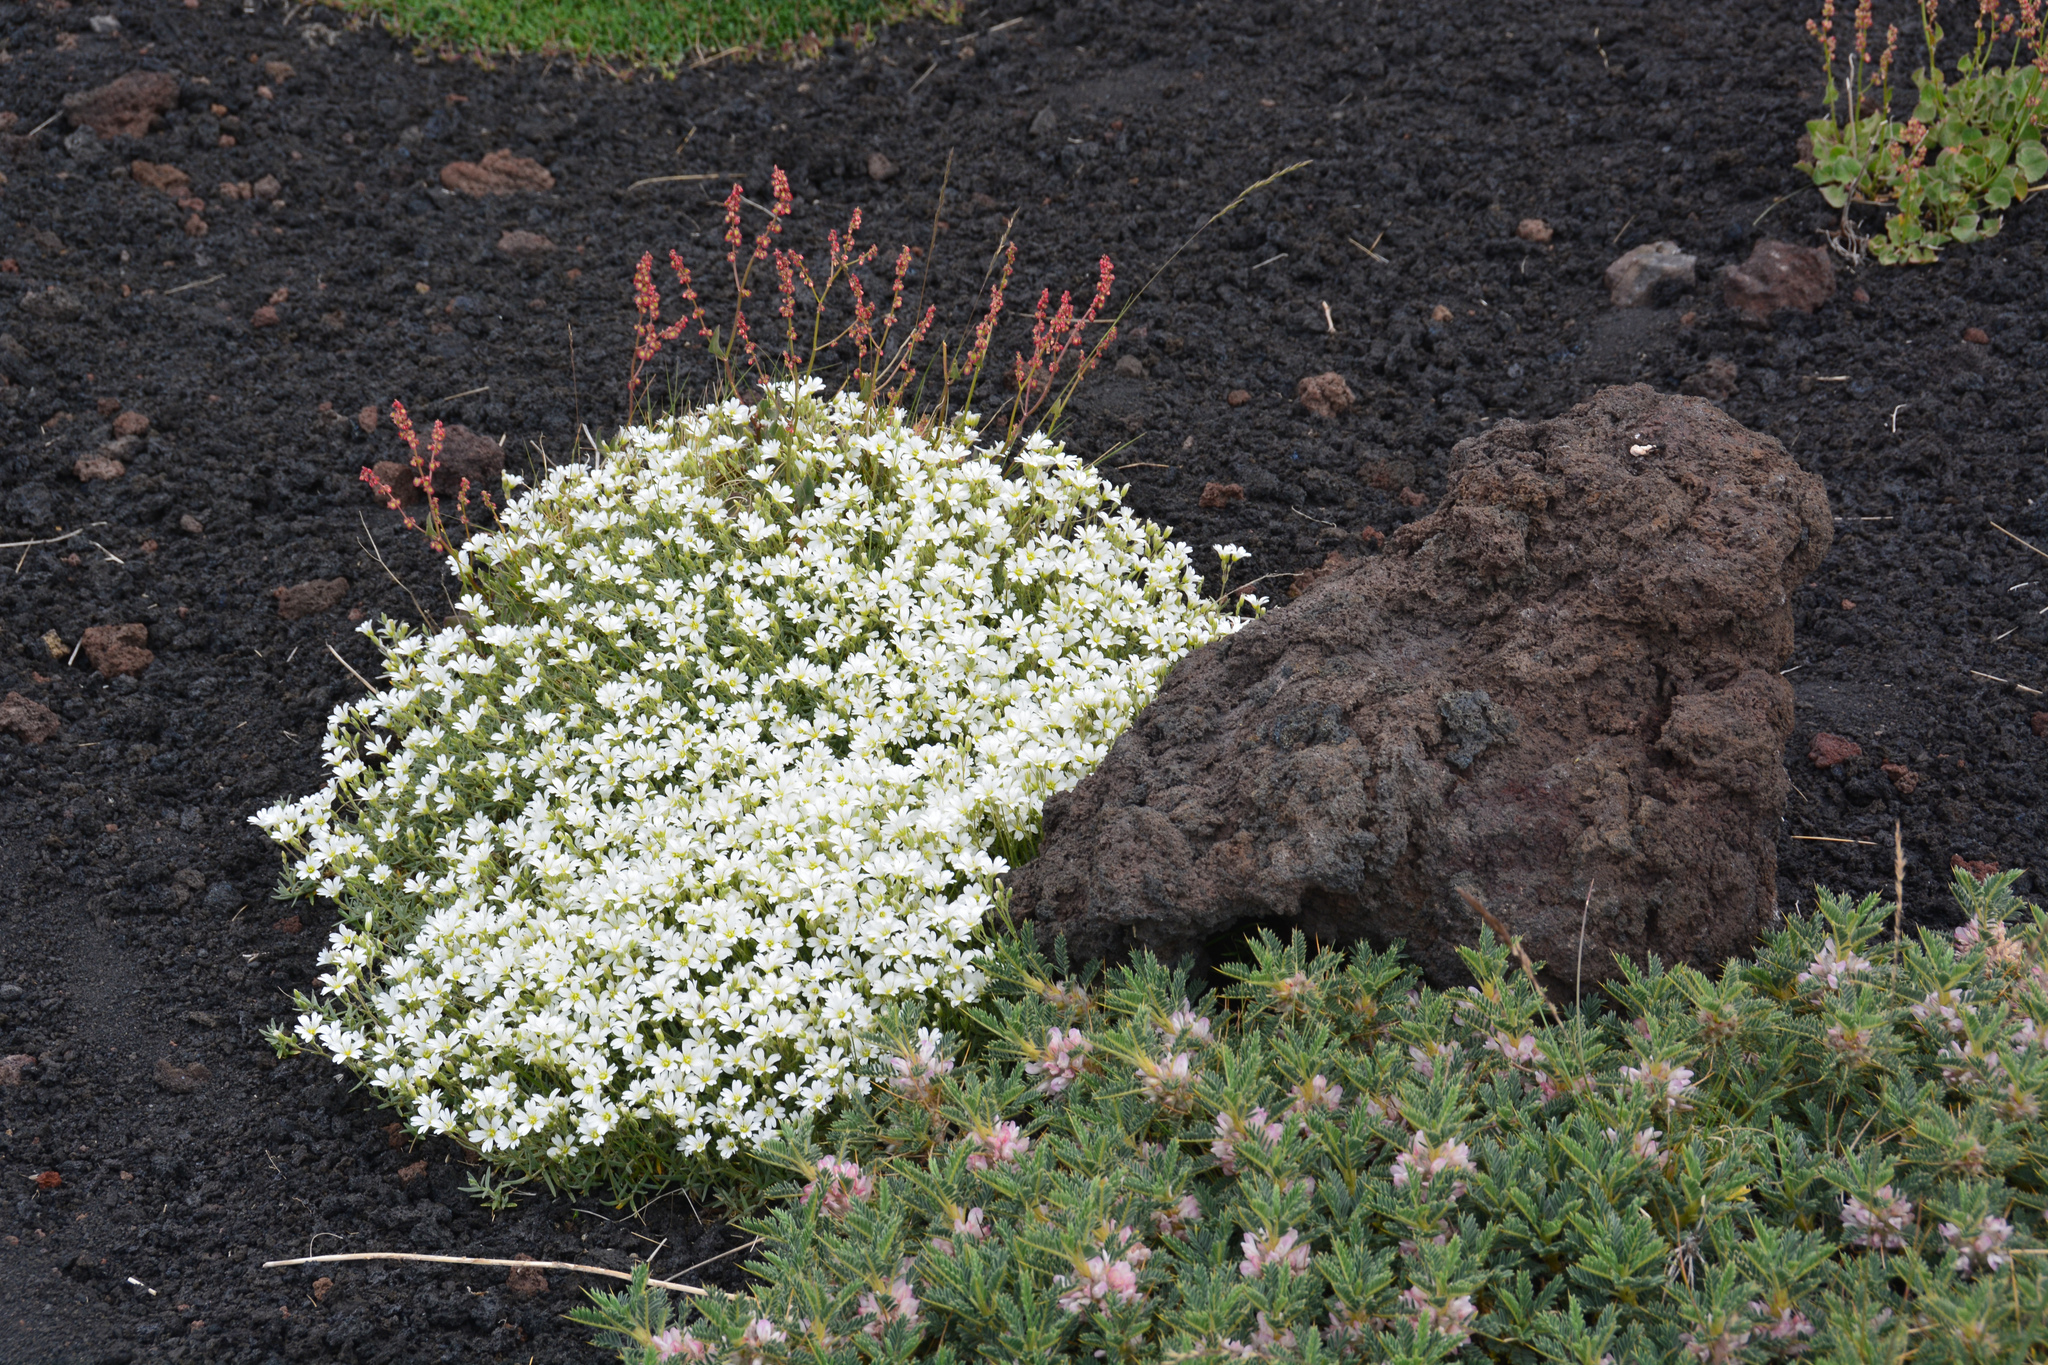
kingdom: Plantae
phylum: Tracheophyta
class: Magnoliopsida
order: Caryophyllales
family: Caryophyllaceae
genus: Cerastium
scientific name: Cerastium tomentosum
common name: Snow-in-summer
